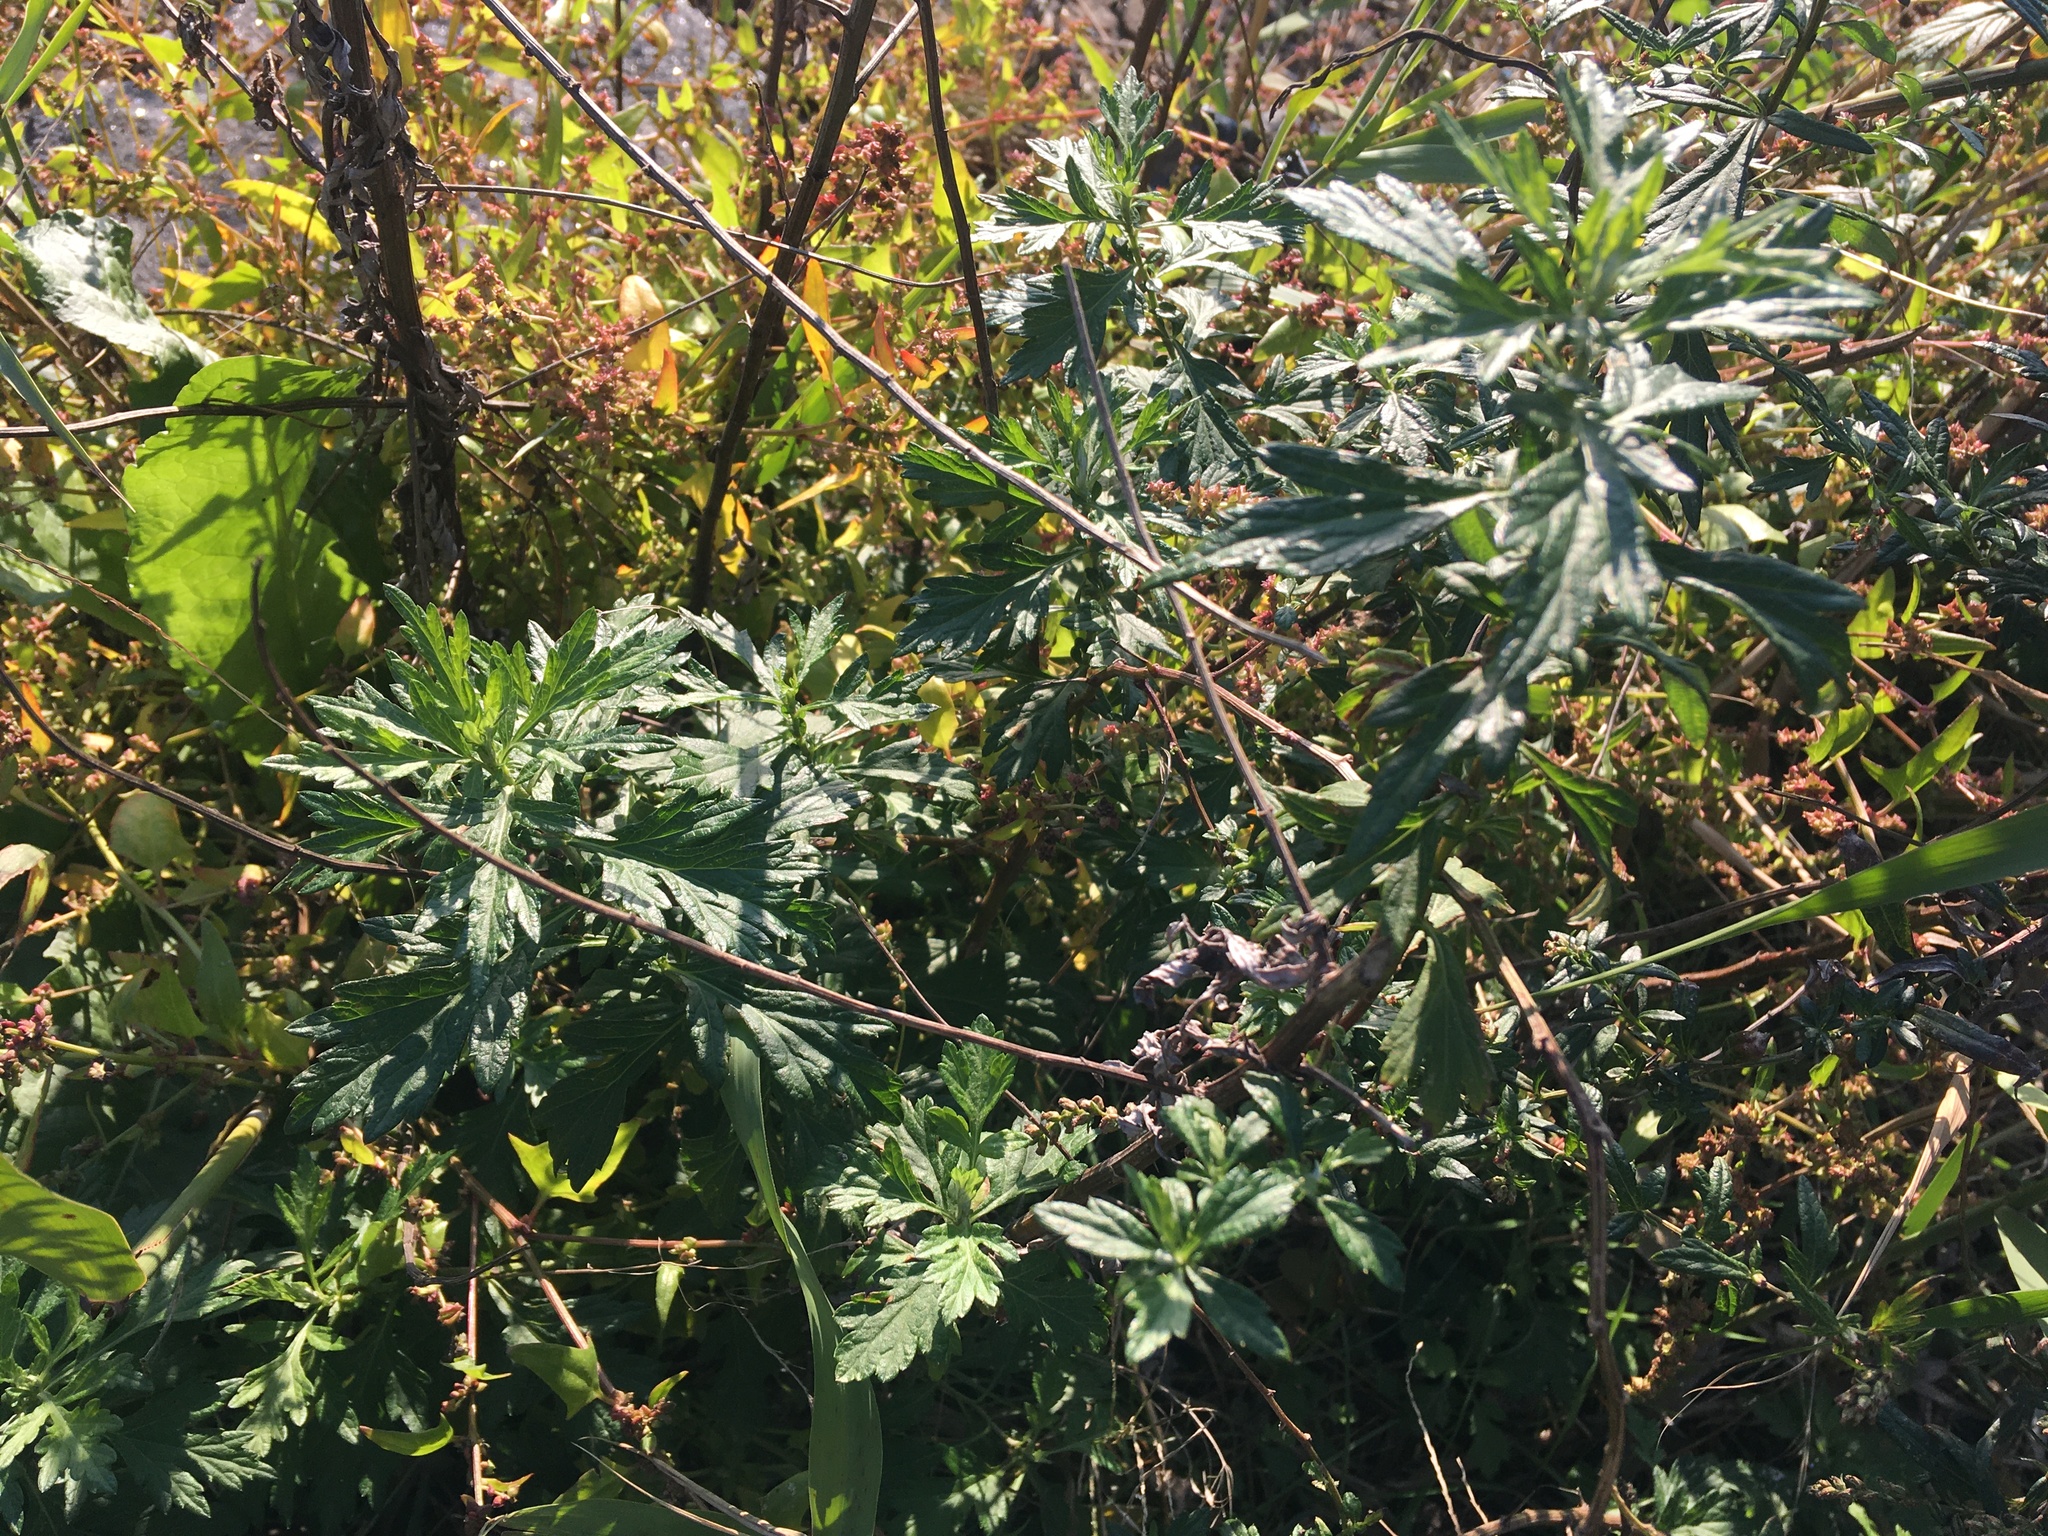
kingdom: Plantae
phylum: Tracheophyta
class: Magnoliopsida
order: Asterales
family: Asteraceae
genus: Artemisia
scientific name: Artemisia vulgaris
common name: Mugwort
